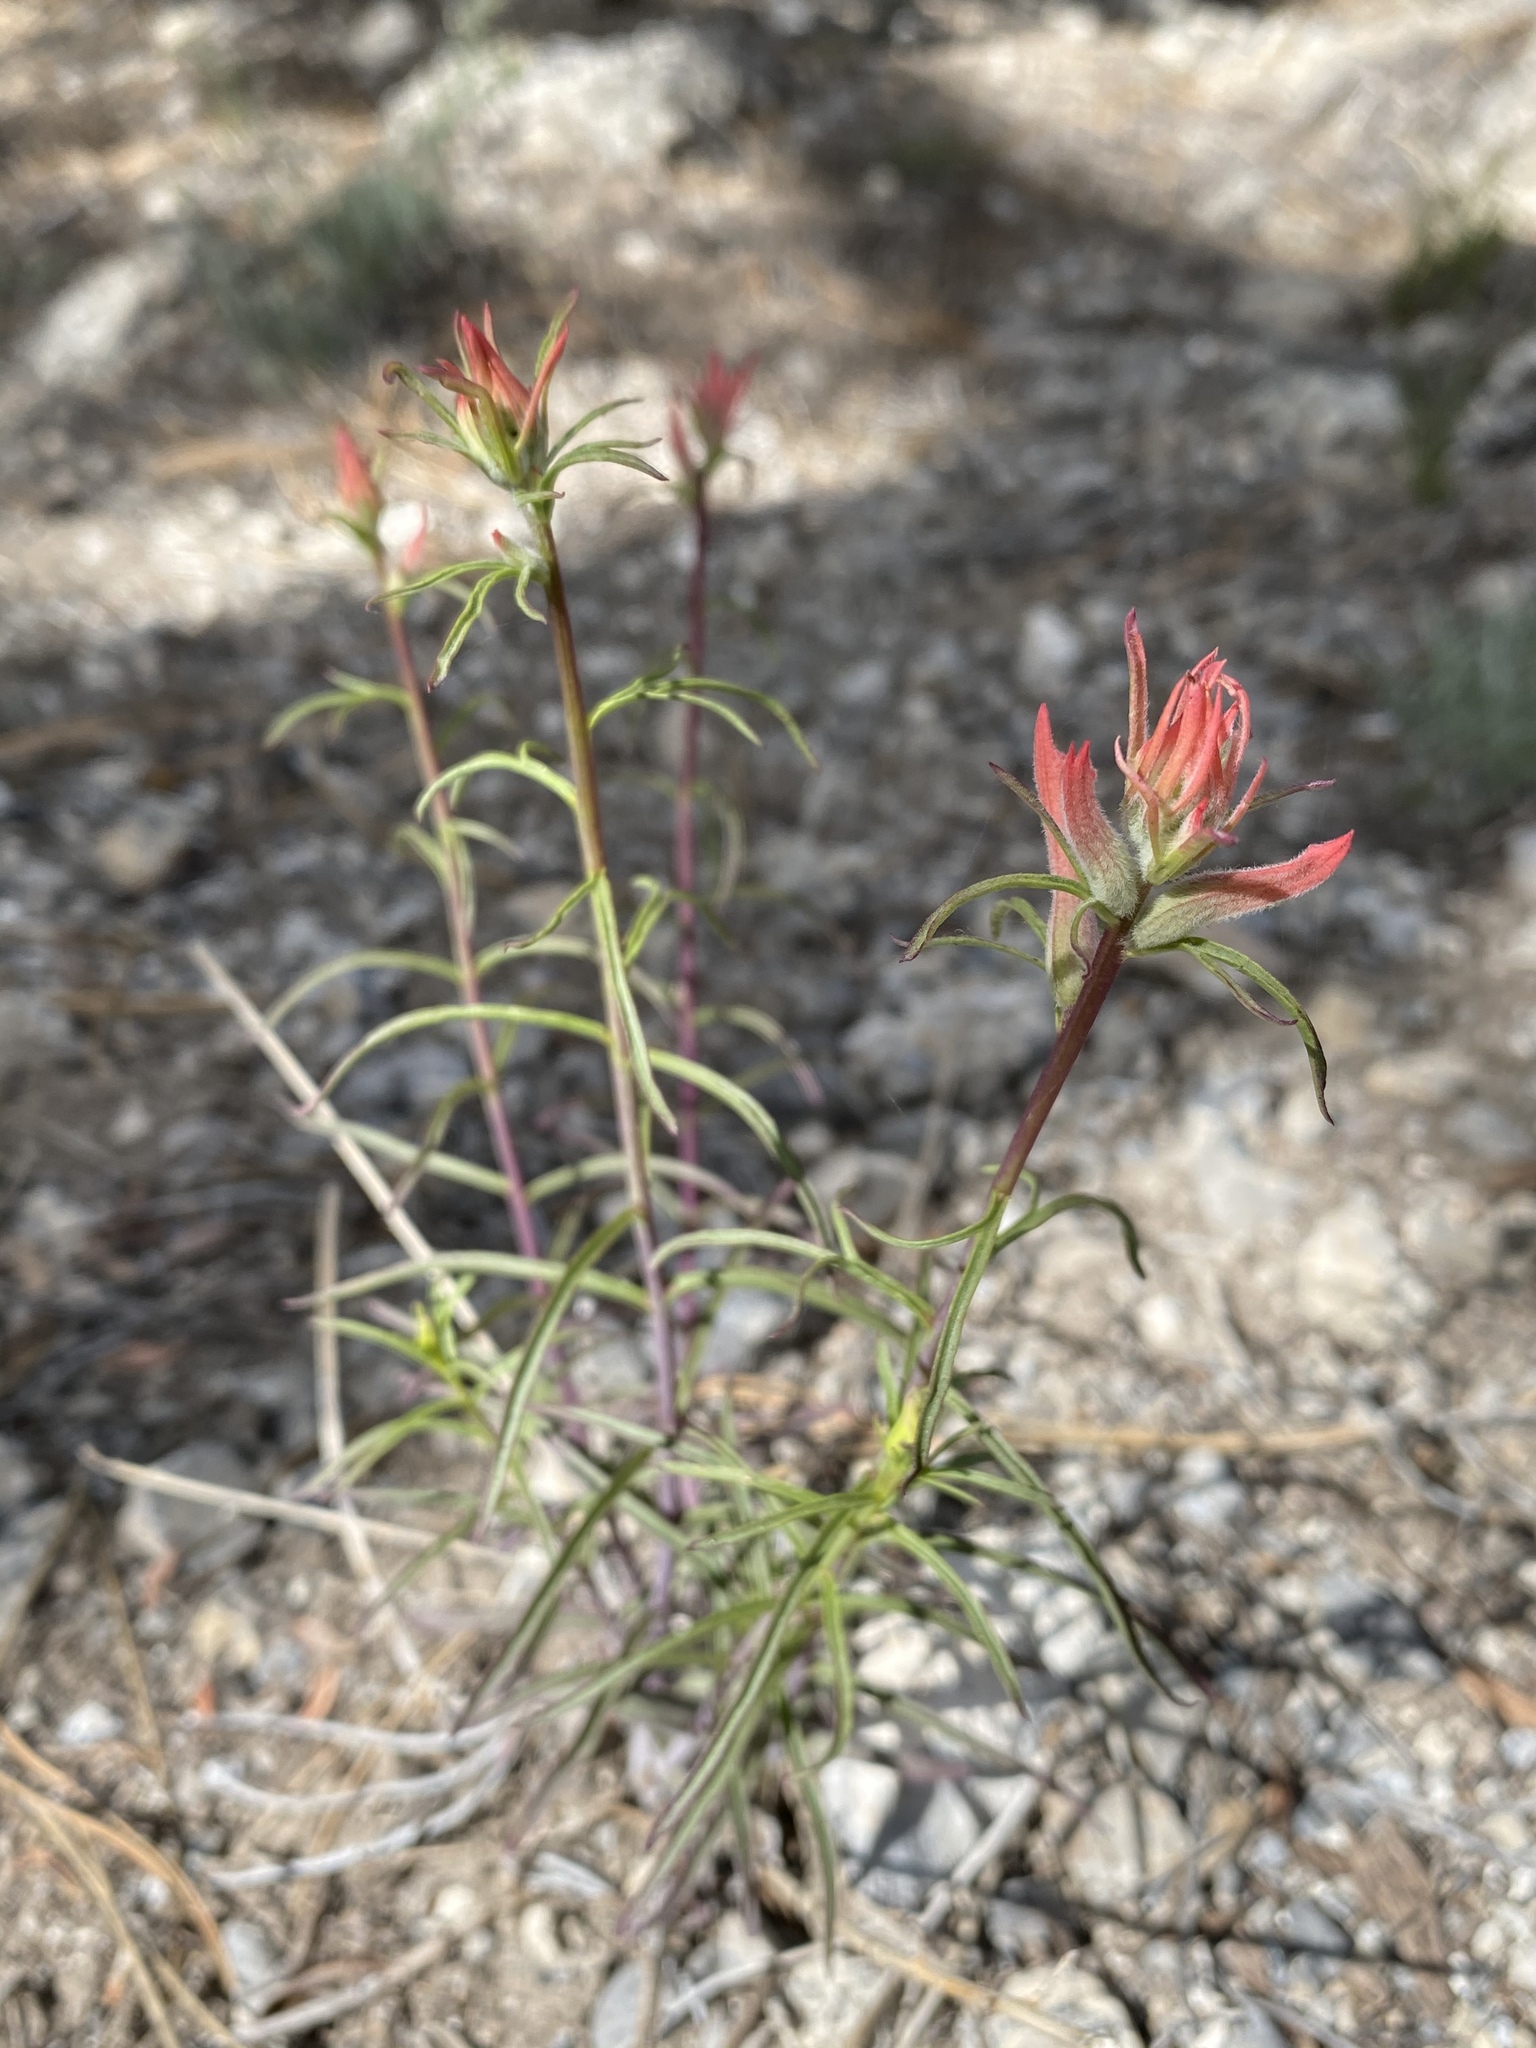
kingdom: Plantae
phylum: Tracheophyta
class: Magnoliopsida
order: Lamiales
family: Orobanchaceae
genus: Castilleja
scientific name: Castilleja linariifolia
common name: Wyoming paintbrush
